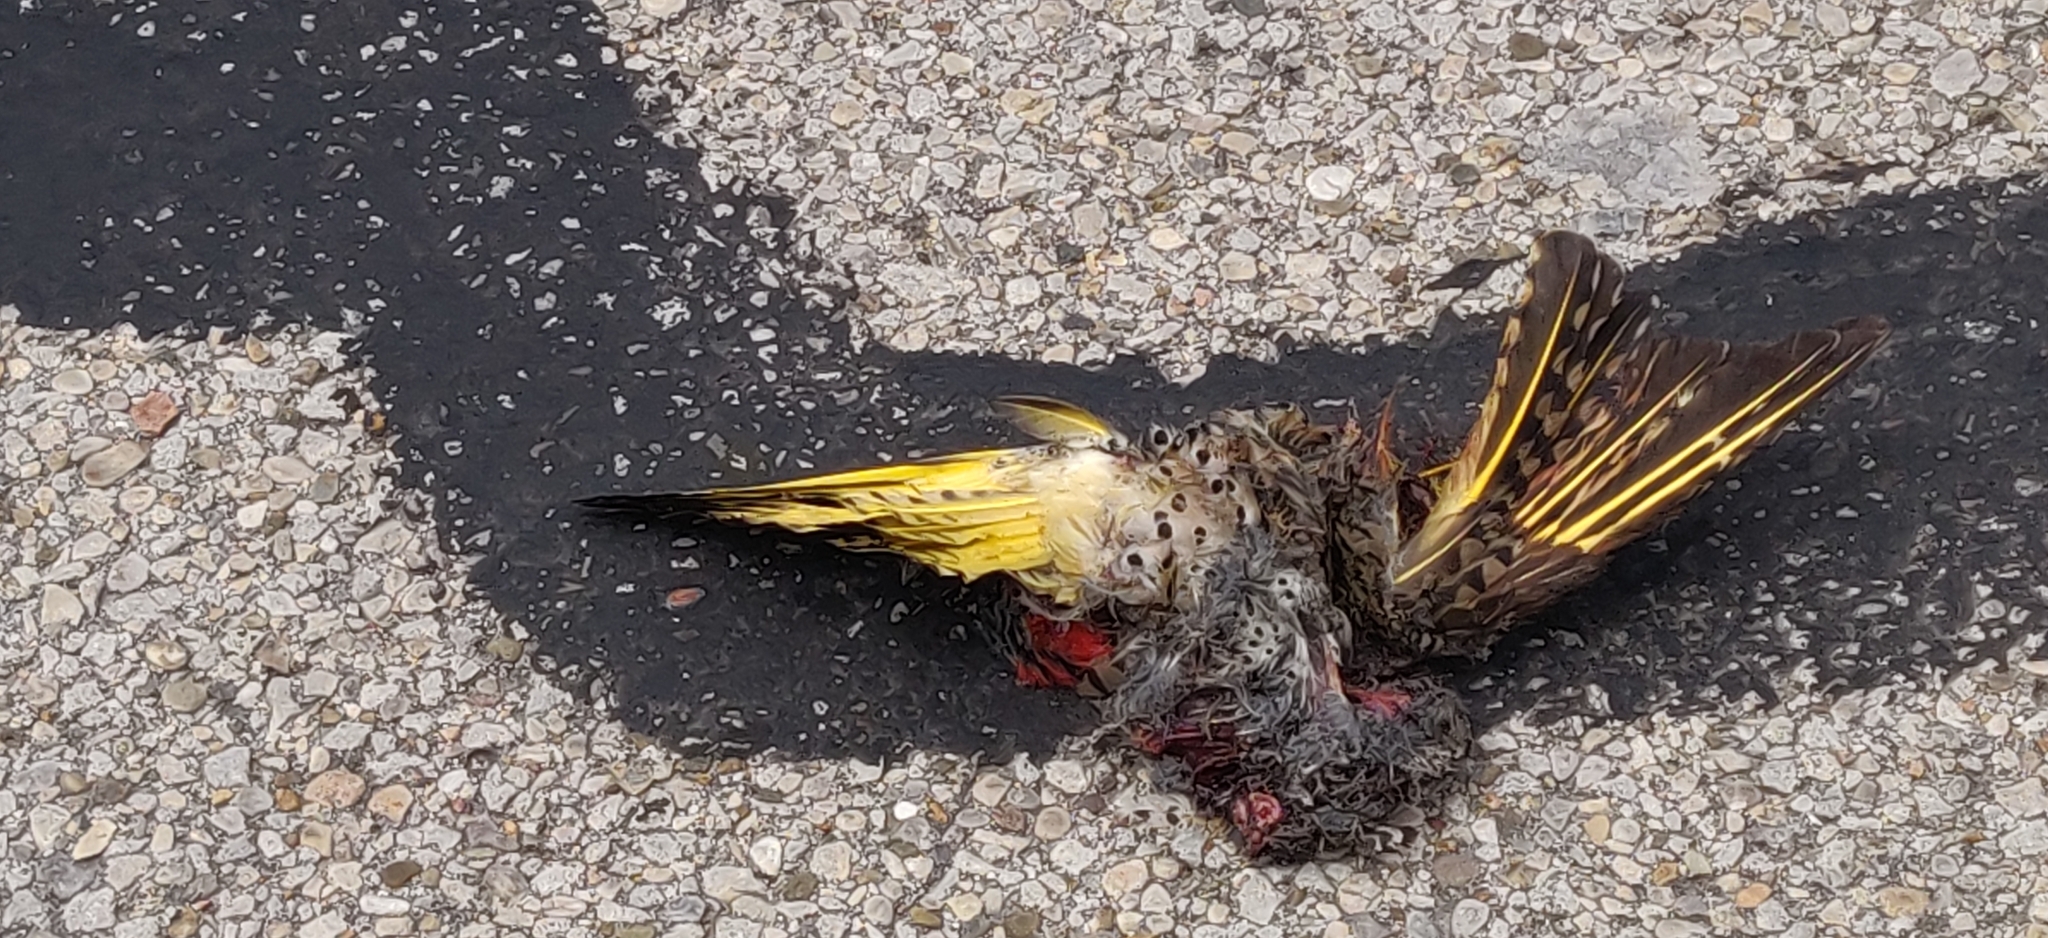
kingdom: Animalia
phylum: Chordata
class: Aves
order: Piciformes
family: Picidae
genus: Colaptes
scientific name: Colaptes auratus
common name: Northern flicker
